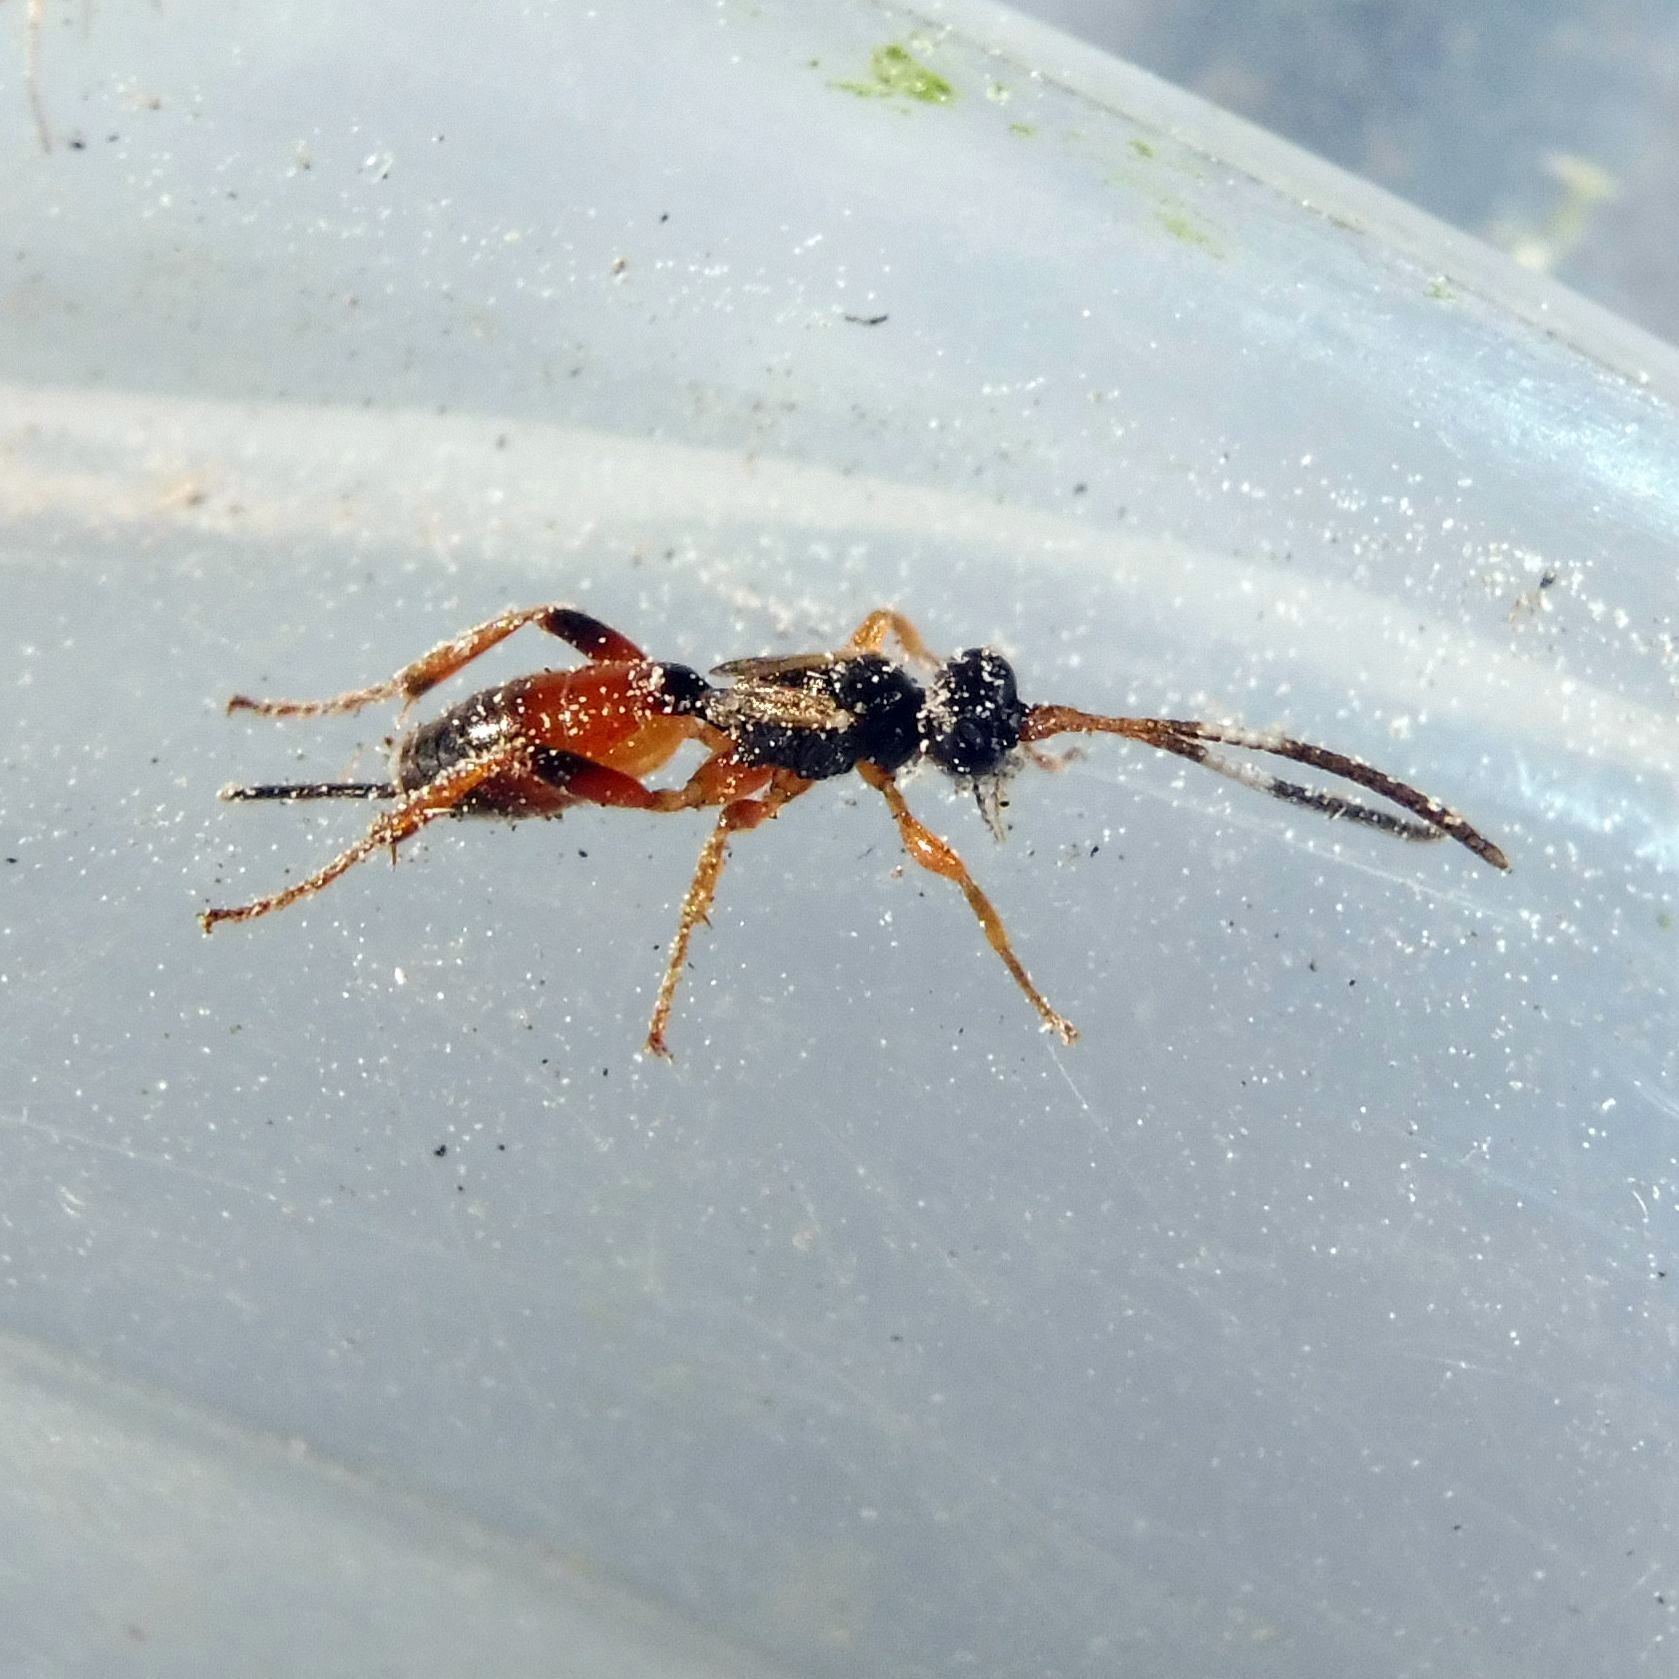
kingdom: Animalia
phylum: Arthropoda
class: Insecta
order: Hymenoptera
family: Ichneumonidae
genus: Pleolophus
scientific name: Pleolophus brachypterus
